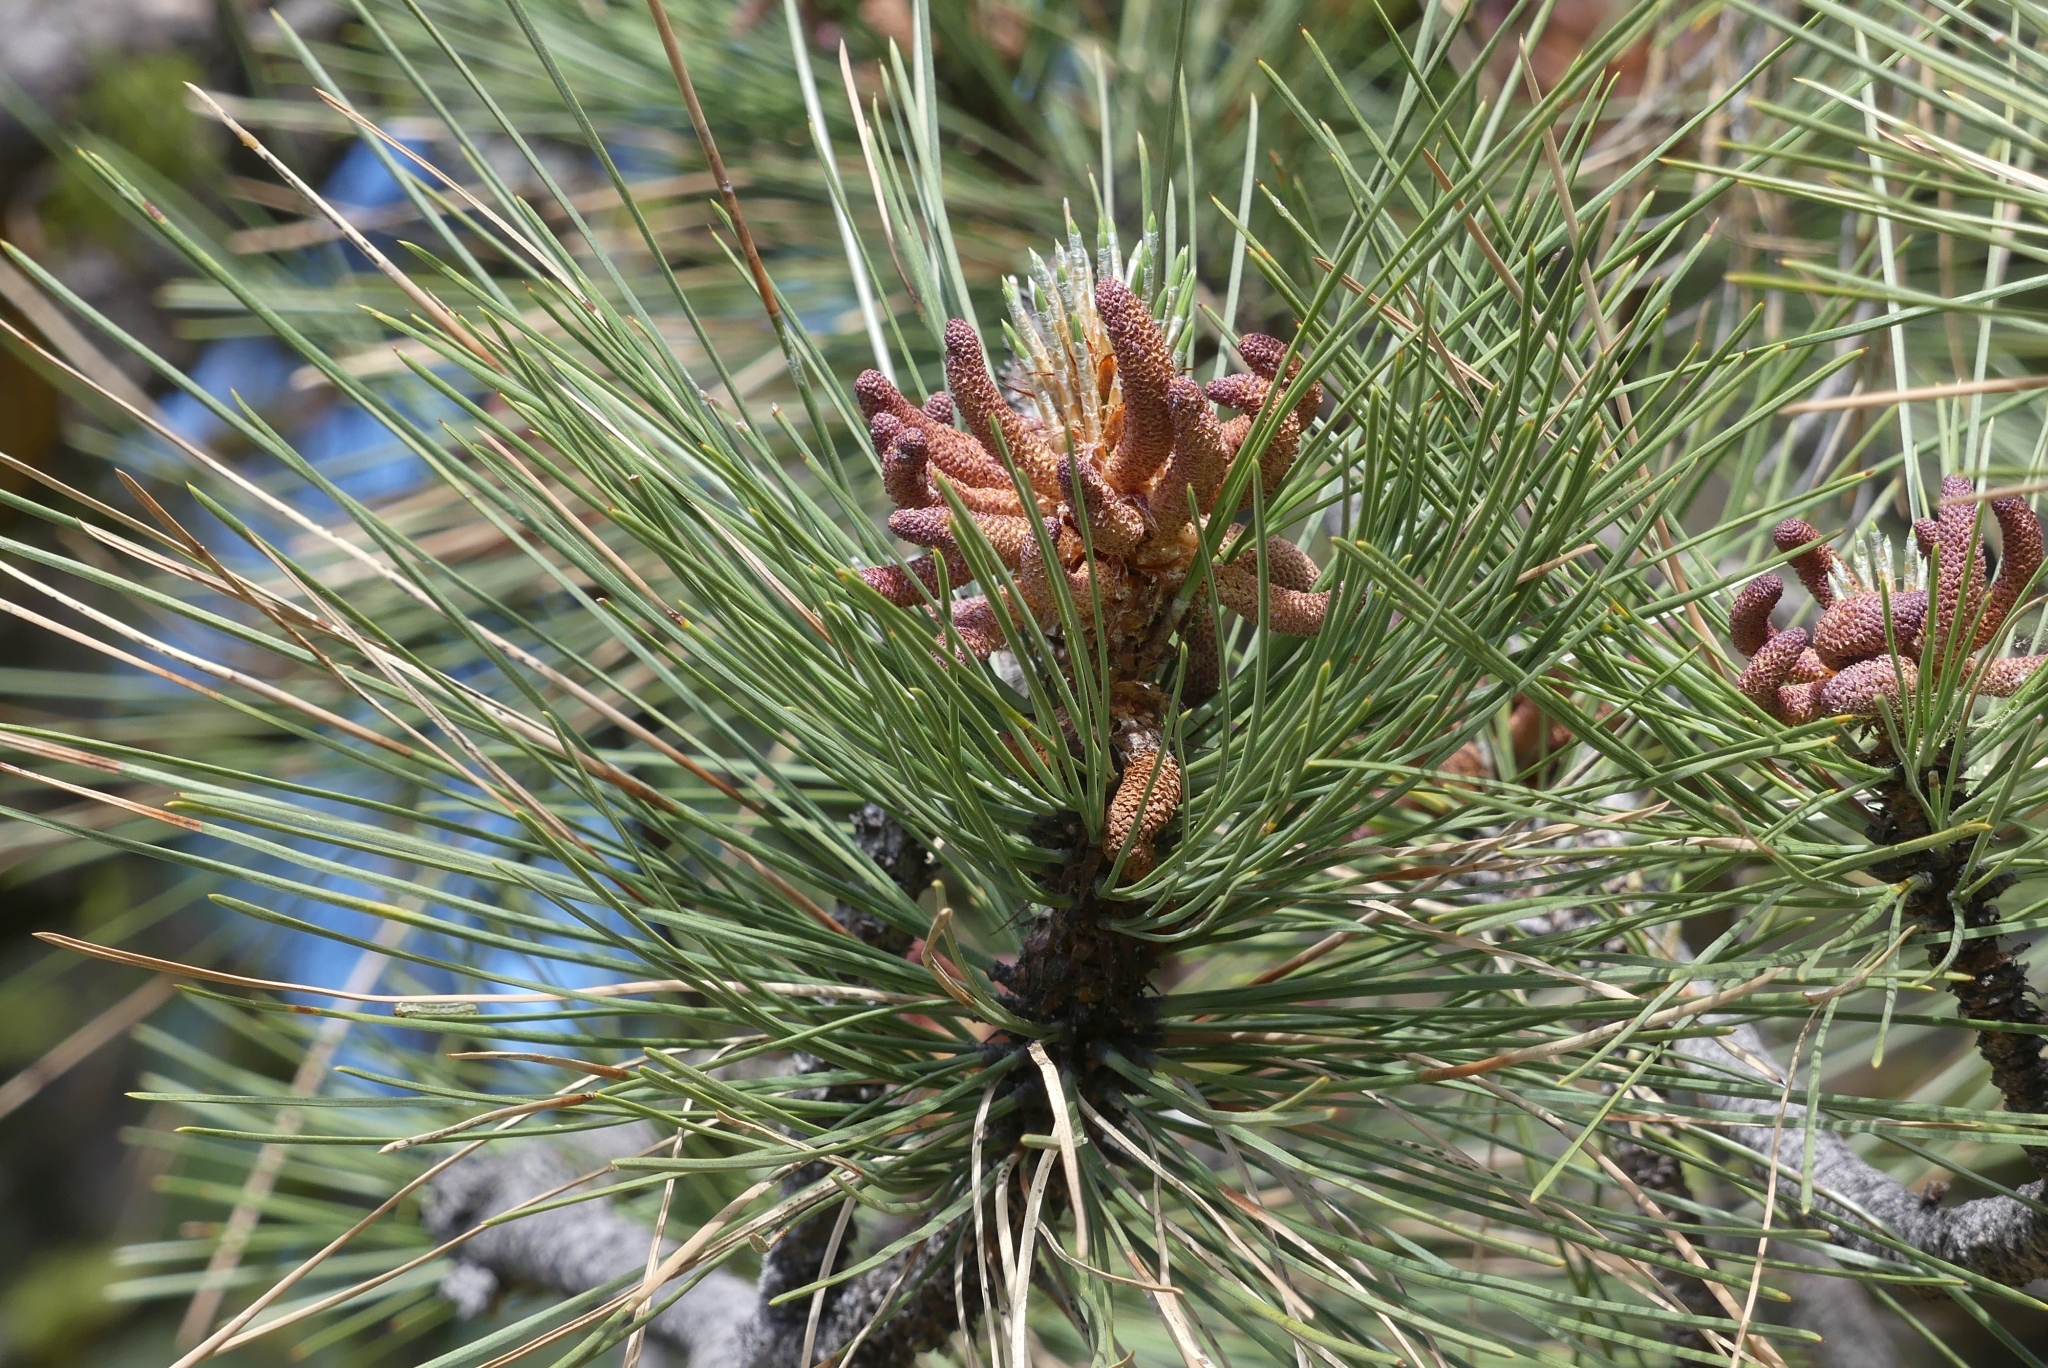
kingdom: Plantae
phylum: Tracheophyta
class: Pinopsida
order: Pinales
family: Pinaceae
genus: Pinus
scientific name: Pinus ponderosa
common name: Western yellow-pine
